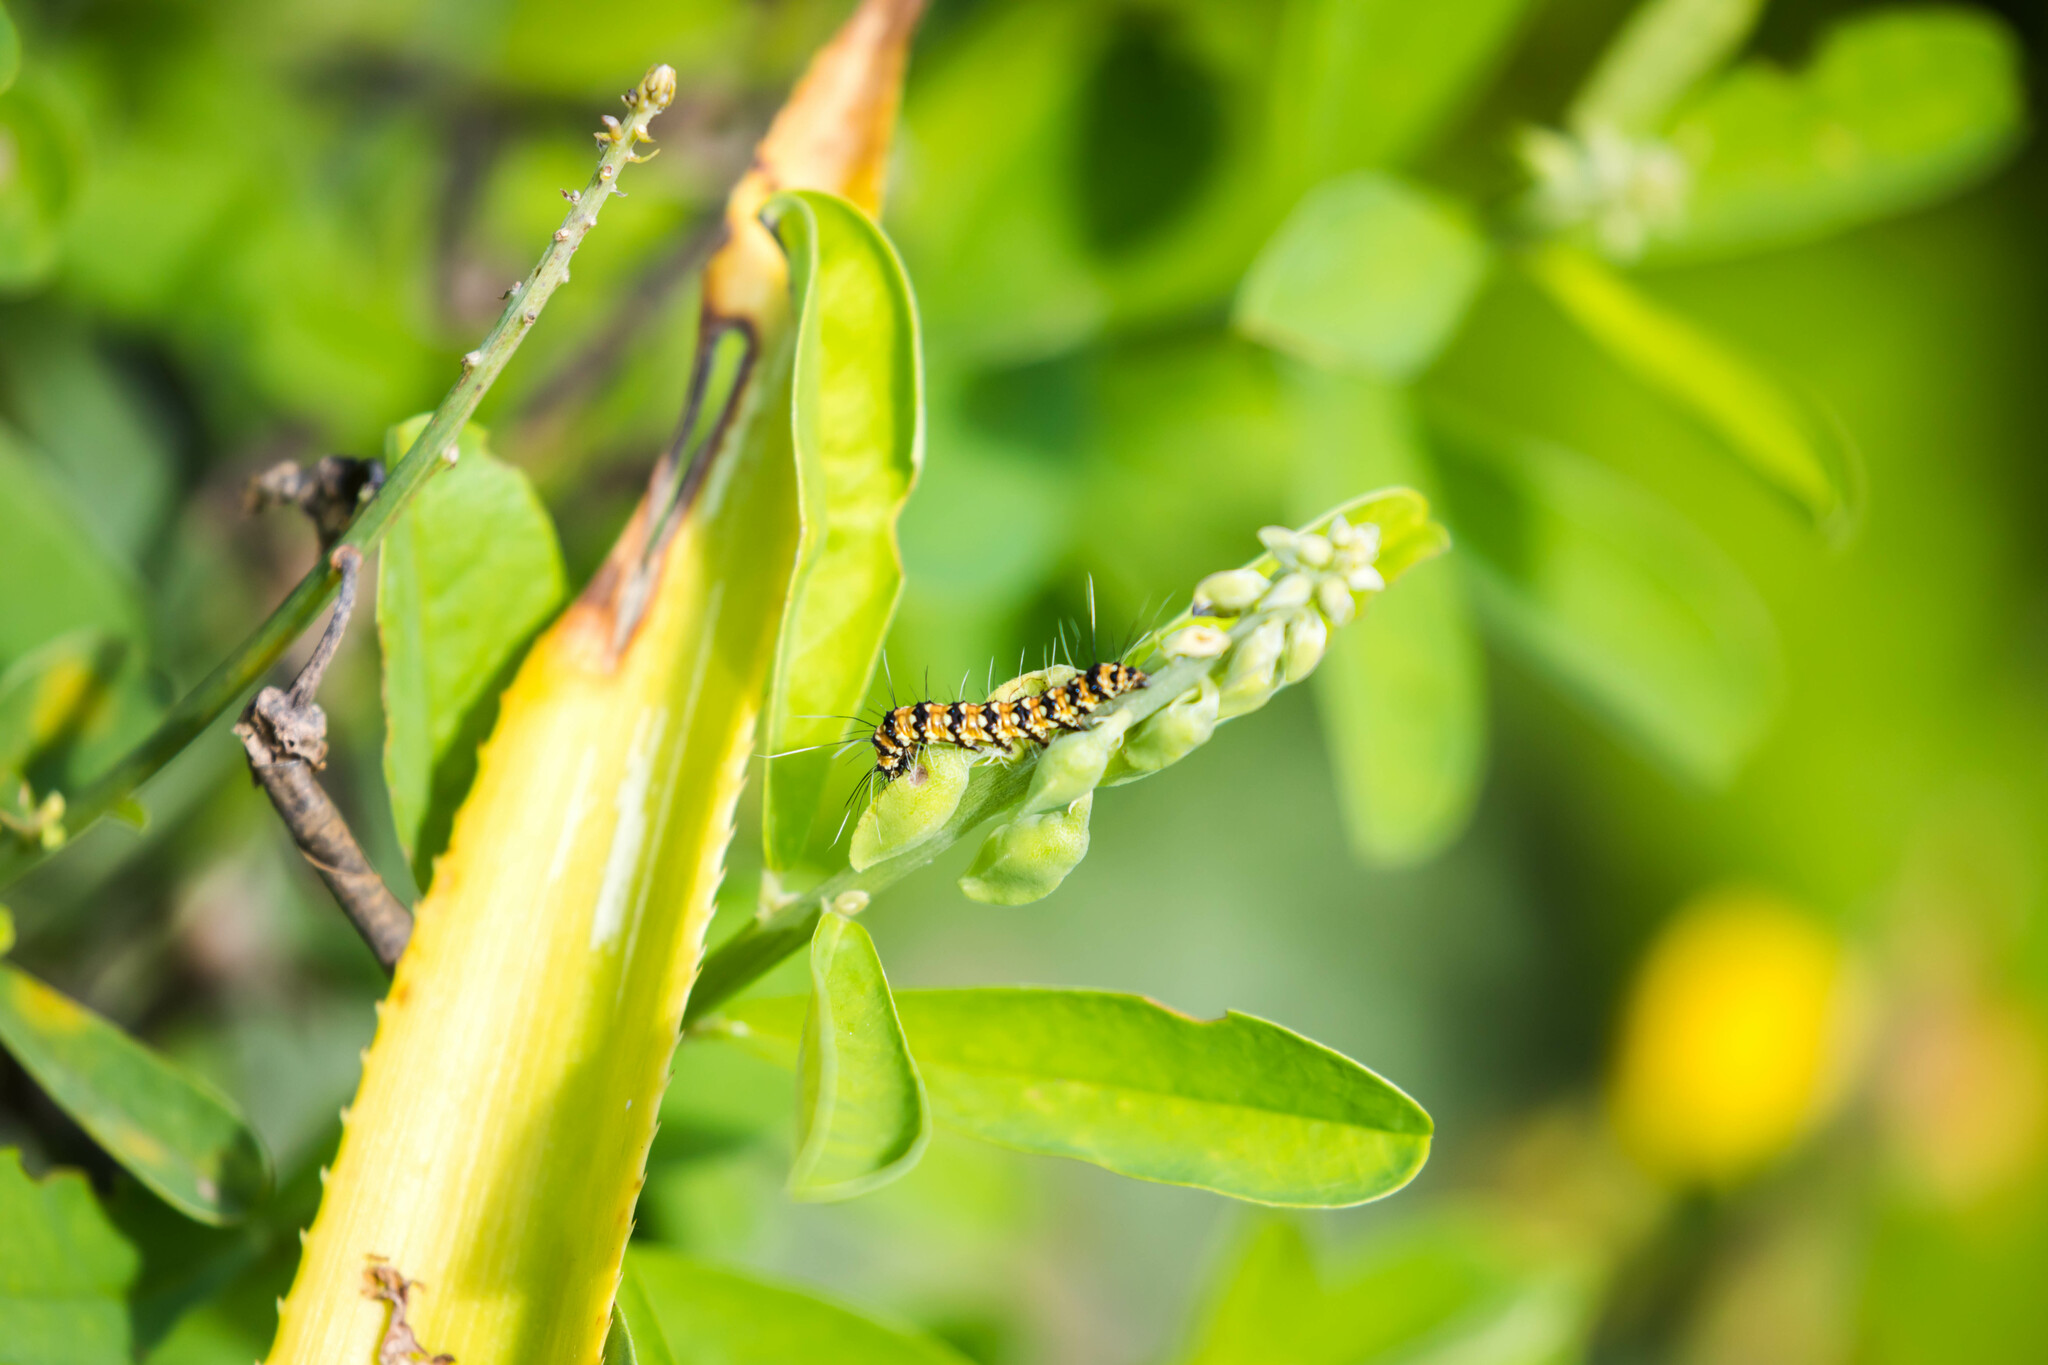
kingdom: Animalia
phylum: Arthropoda
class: Insecta
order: Lepidoptera
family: Erebidae
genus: Utetheisa
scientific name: Utetheisa ornatrix
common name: Beautiful utetheisa
